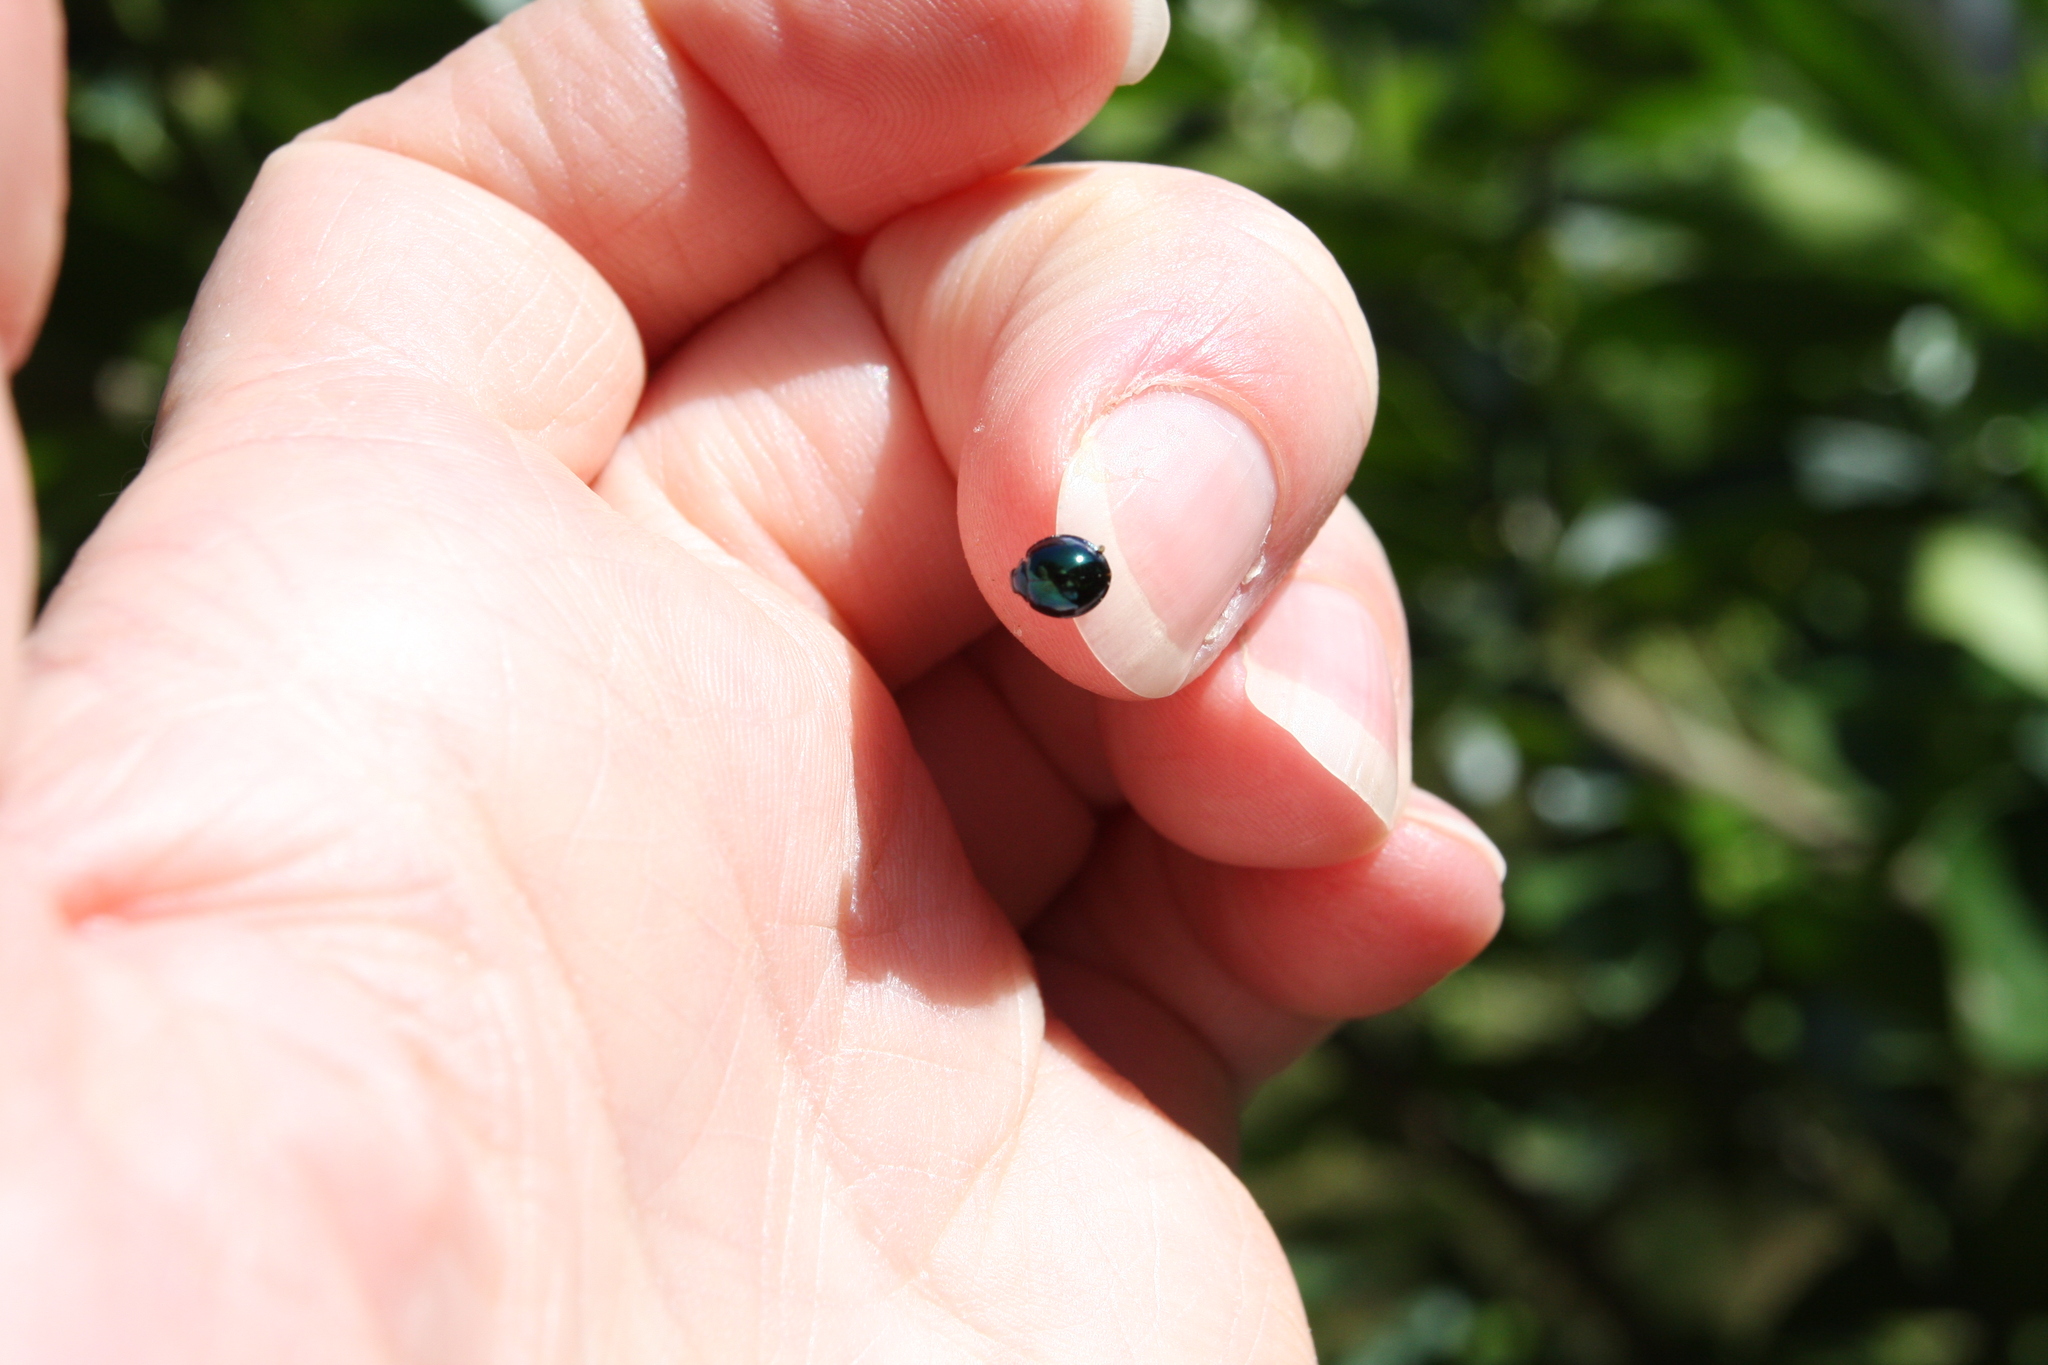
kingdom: Animalia
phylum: Arthropoda
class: Insecta
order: Coleoptera
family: Coccinellidae
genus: Halmus
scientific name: Halmus chalybeus
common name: Steel blue ladybird beetle
